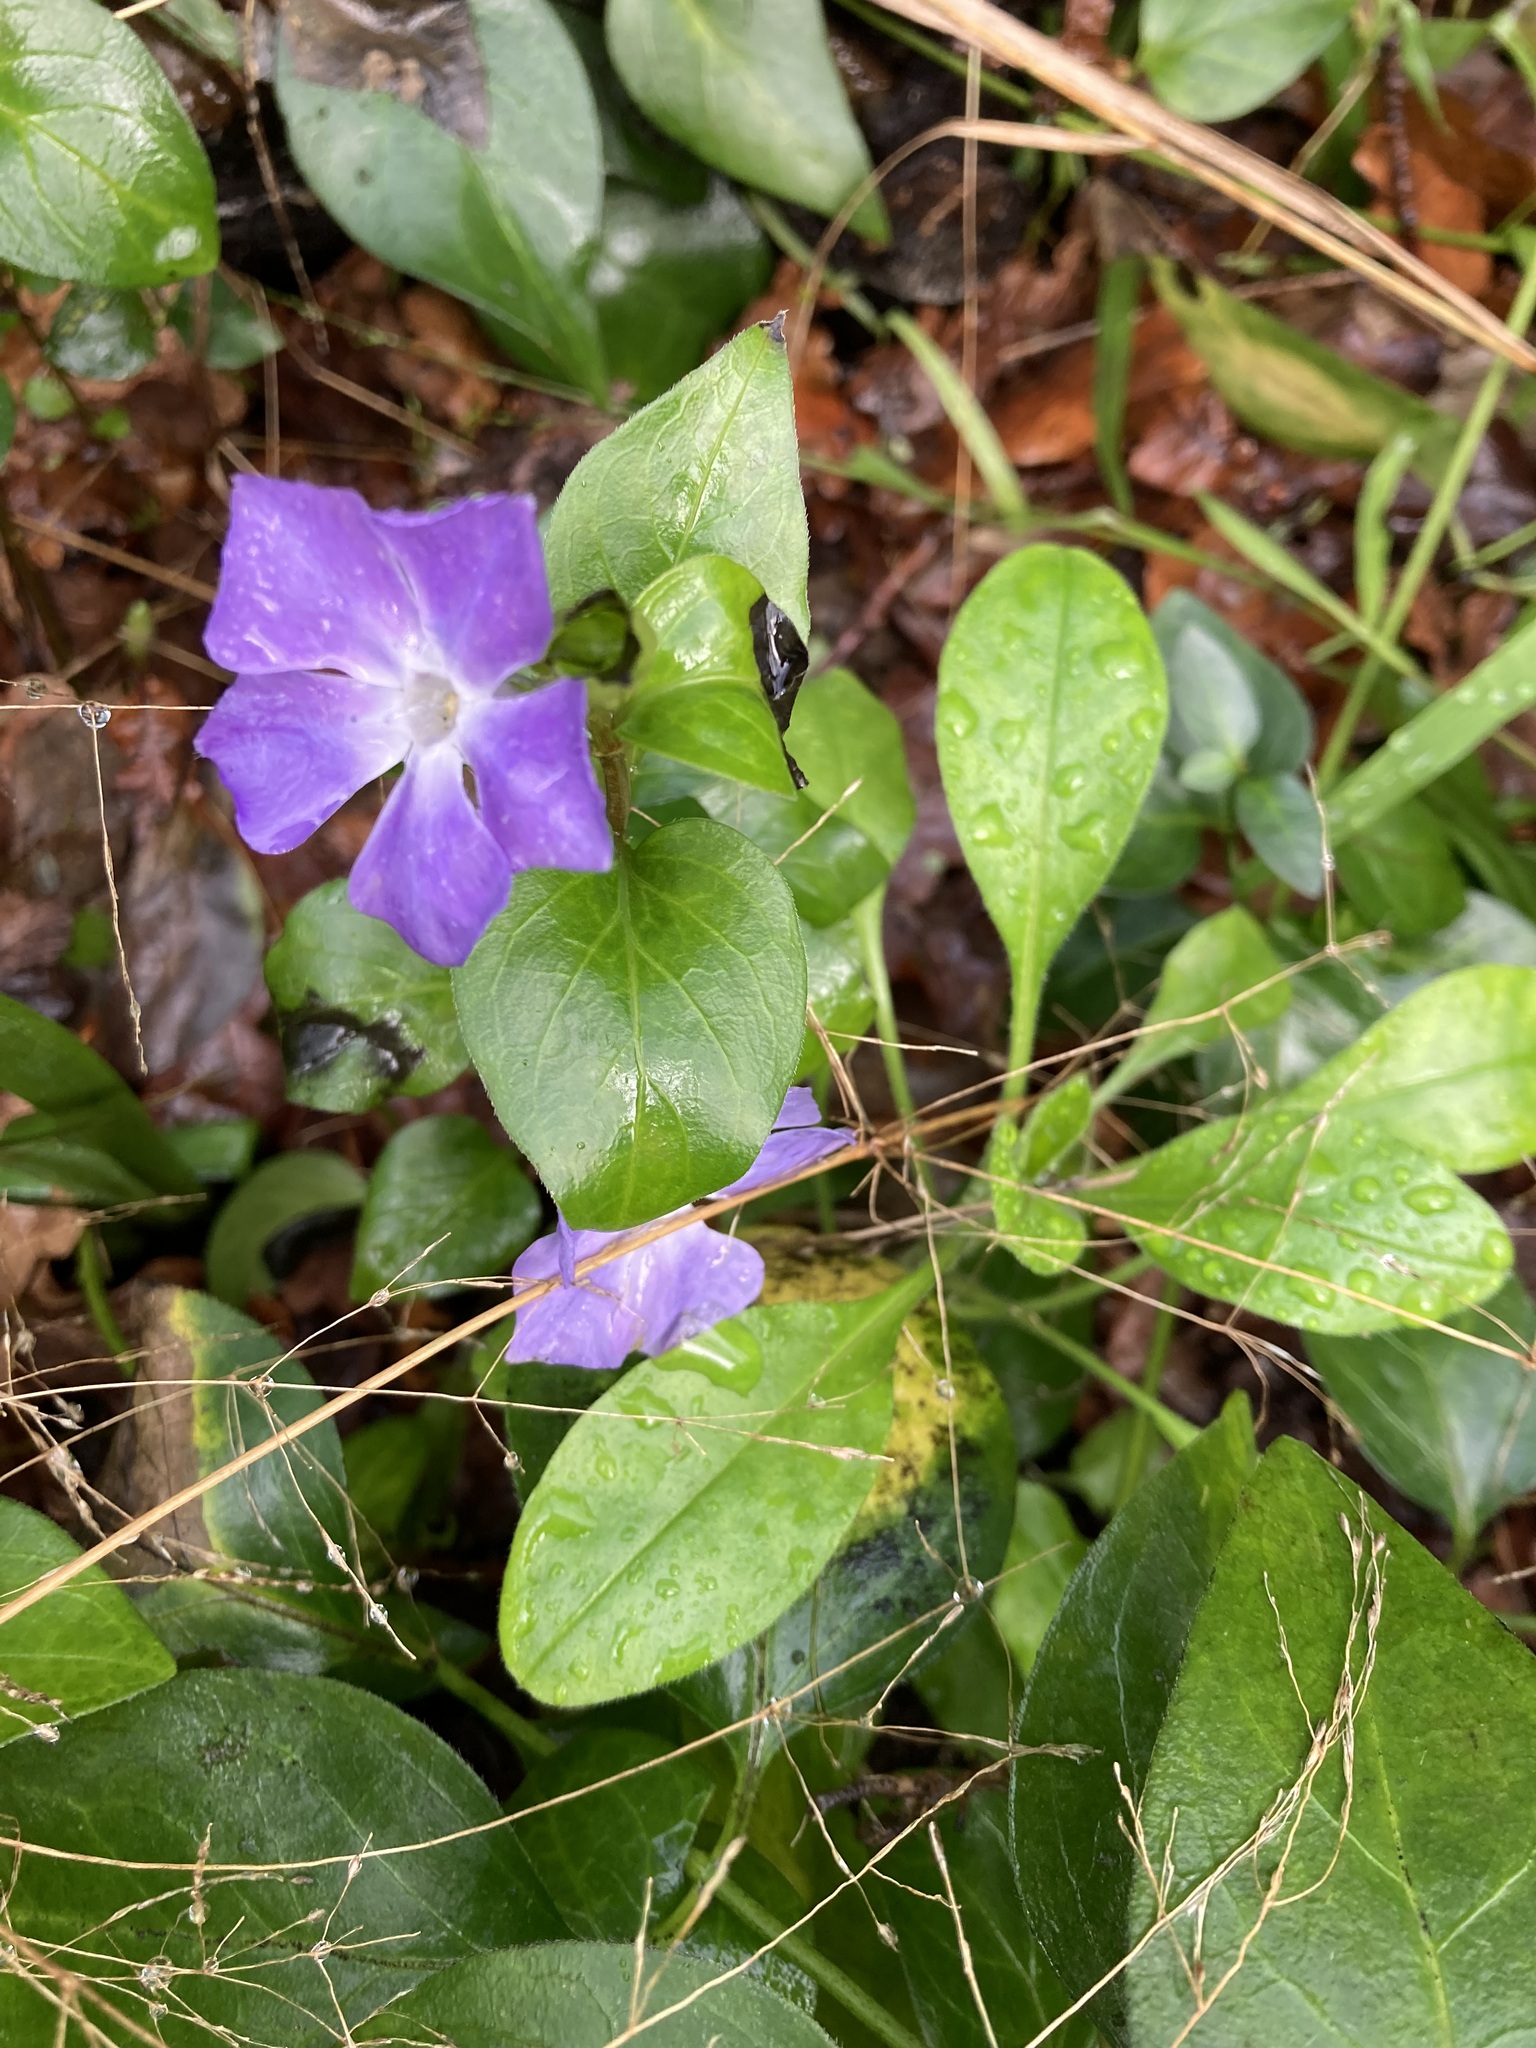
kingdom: Plantae
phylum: Tracheophyta
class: Magnoliopsida
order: Gentianales
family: Apocynaceae
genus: Vinca
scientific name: Vinca major
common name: Greater periwinkle
